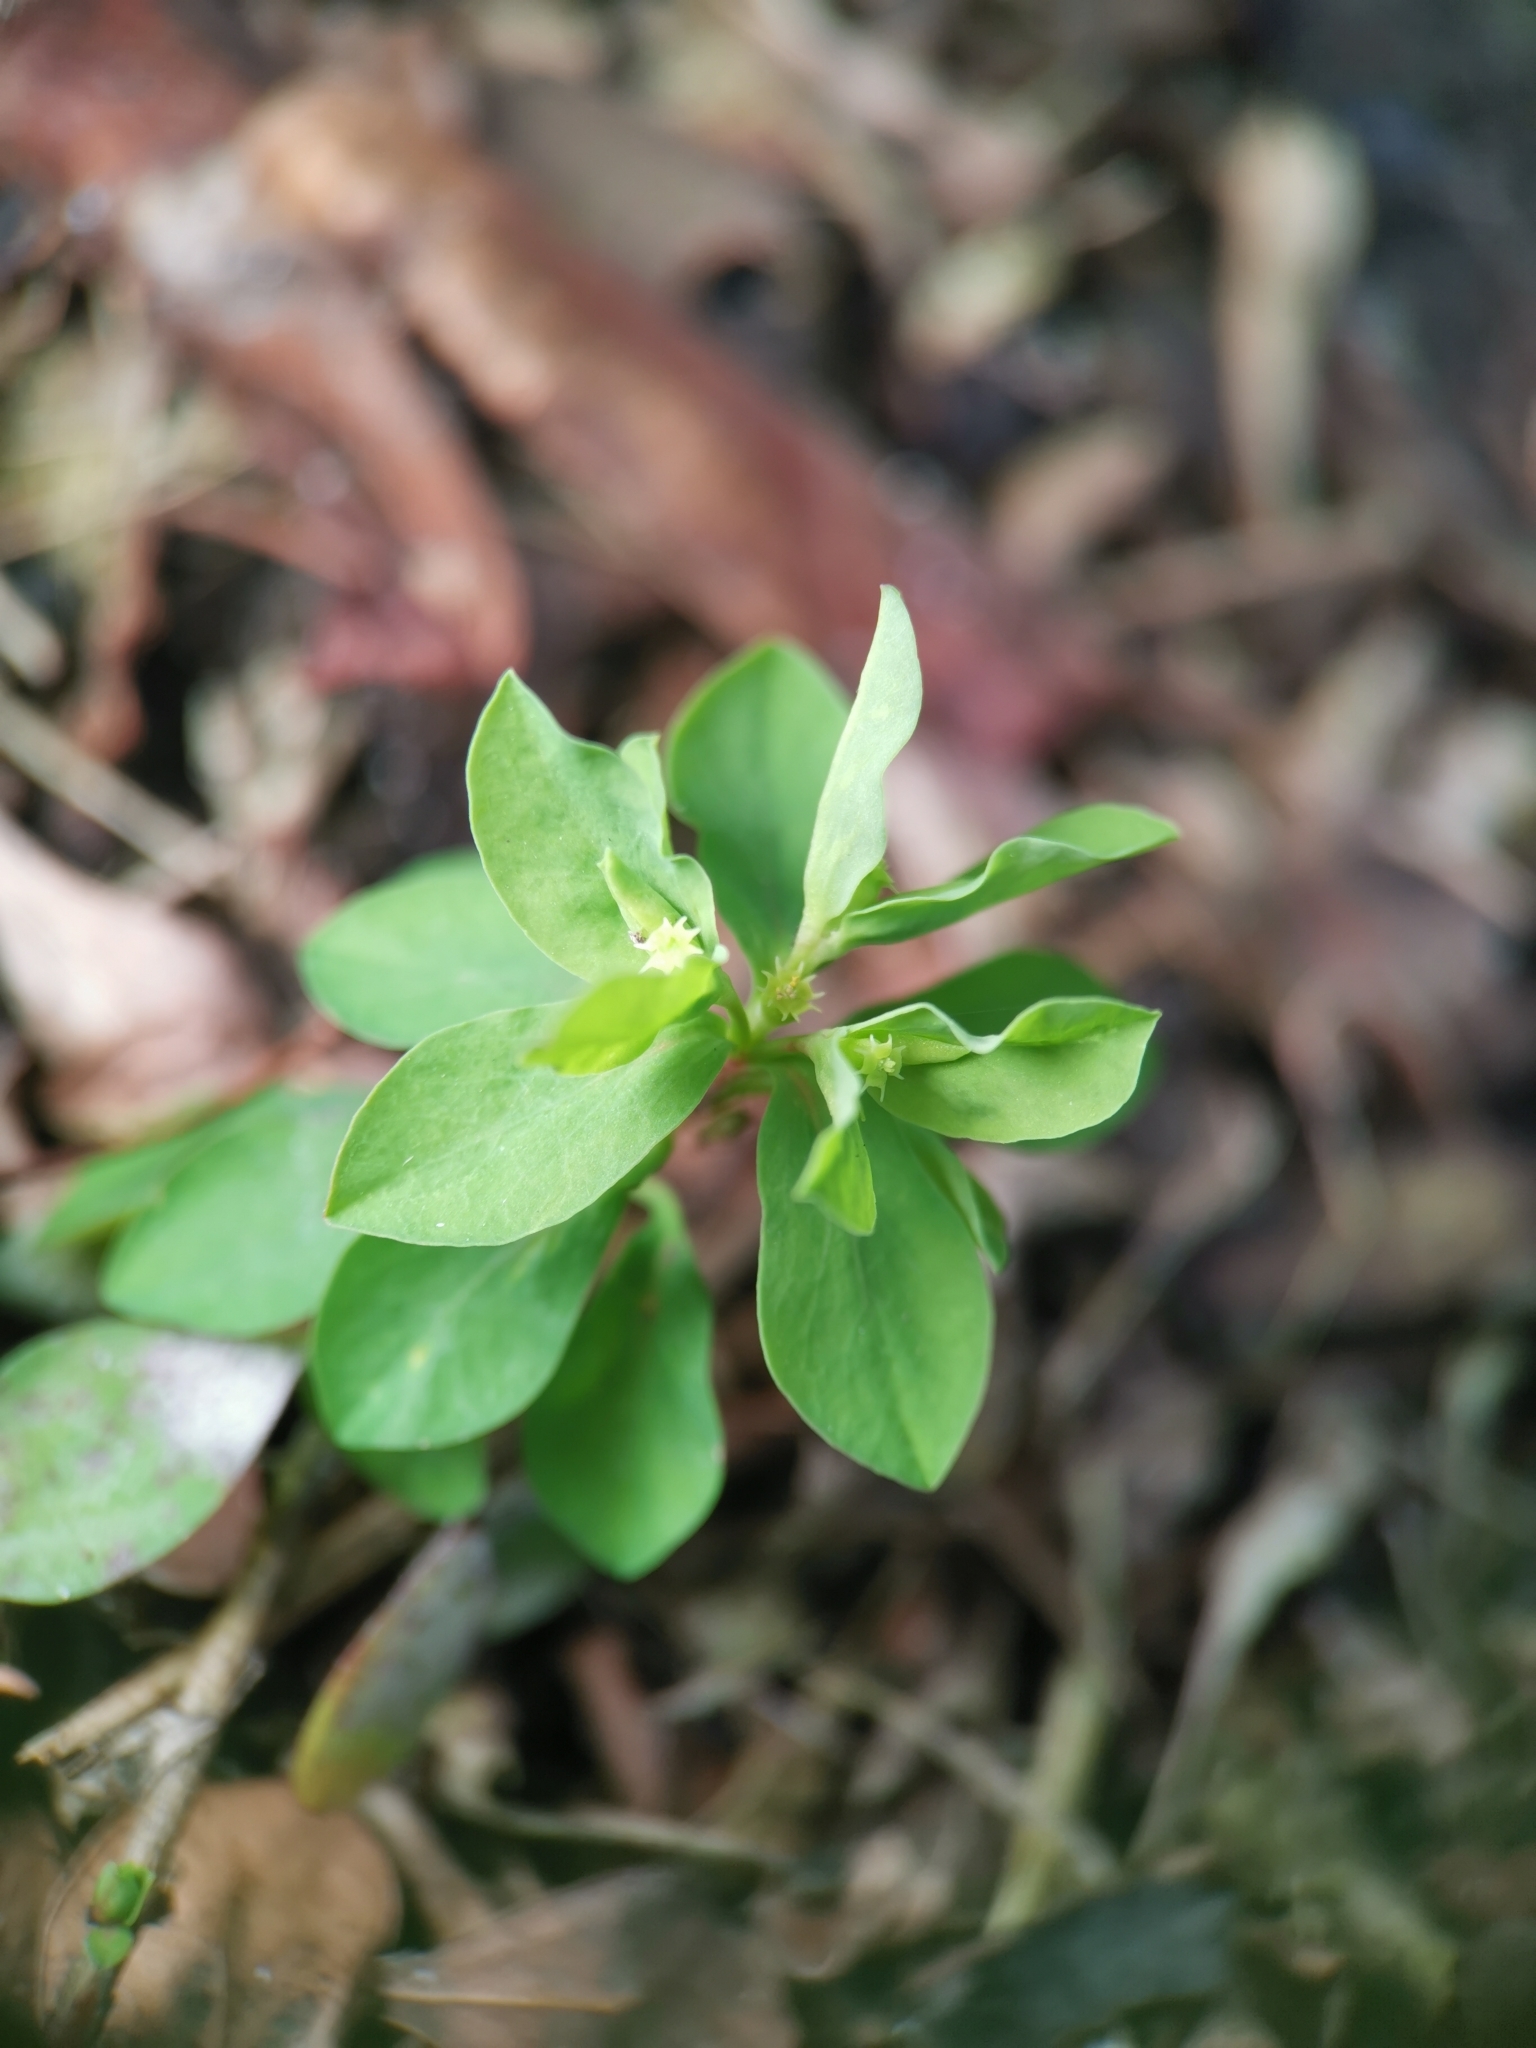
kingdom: Plantae
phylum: Tracheophyta
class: Magnoliopsida
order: Malpighiales
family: Euphorbiaceae
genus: Euphorbia
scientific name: Euphorbia peplus
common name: Petty spurge
